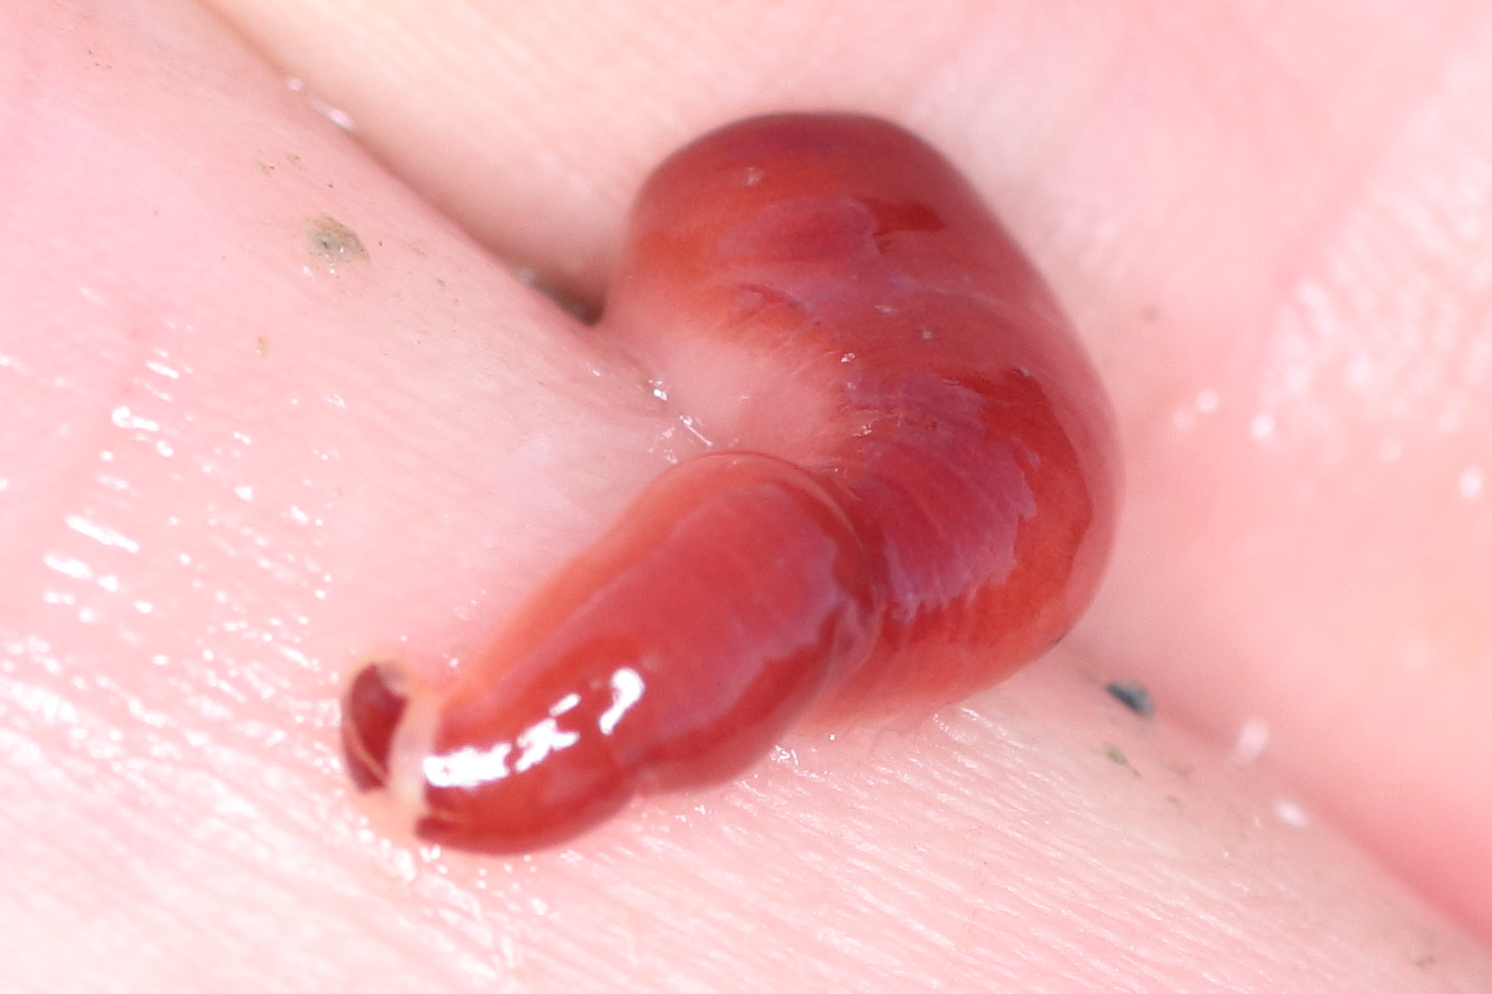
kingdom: Animalia
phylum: Nemertea
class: Hoplonemertea
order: Monostilifera
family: Cratenemertidae
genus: Nipponnemertes
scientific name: Nipponnemertes bimaculata
